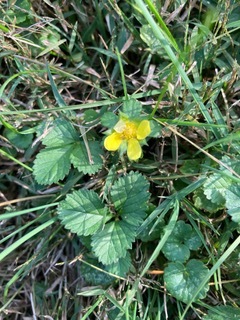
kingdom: Plantae
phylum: Tracheophyta
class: Magnoliopsida
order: Rosales
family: Rosaceae
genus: Potentilla
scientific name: Potentilla indica
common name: Yellow-flowered strawberry
